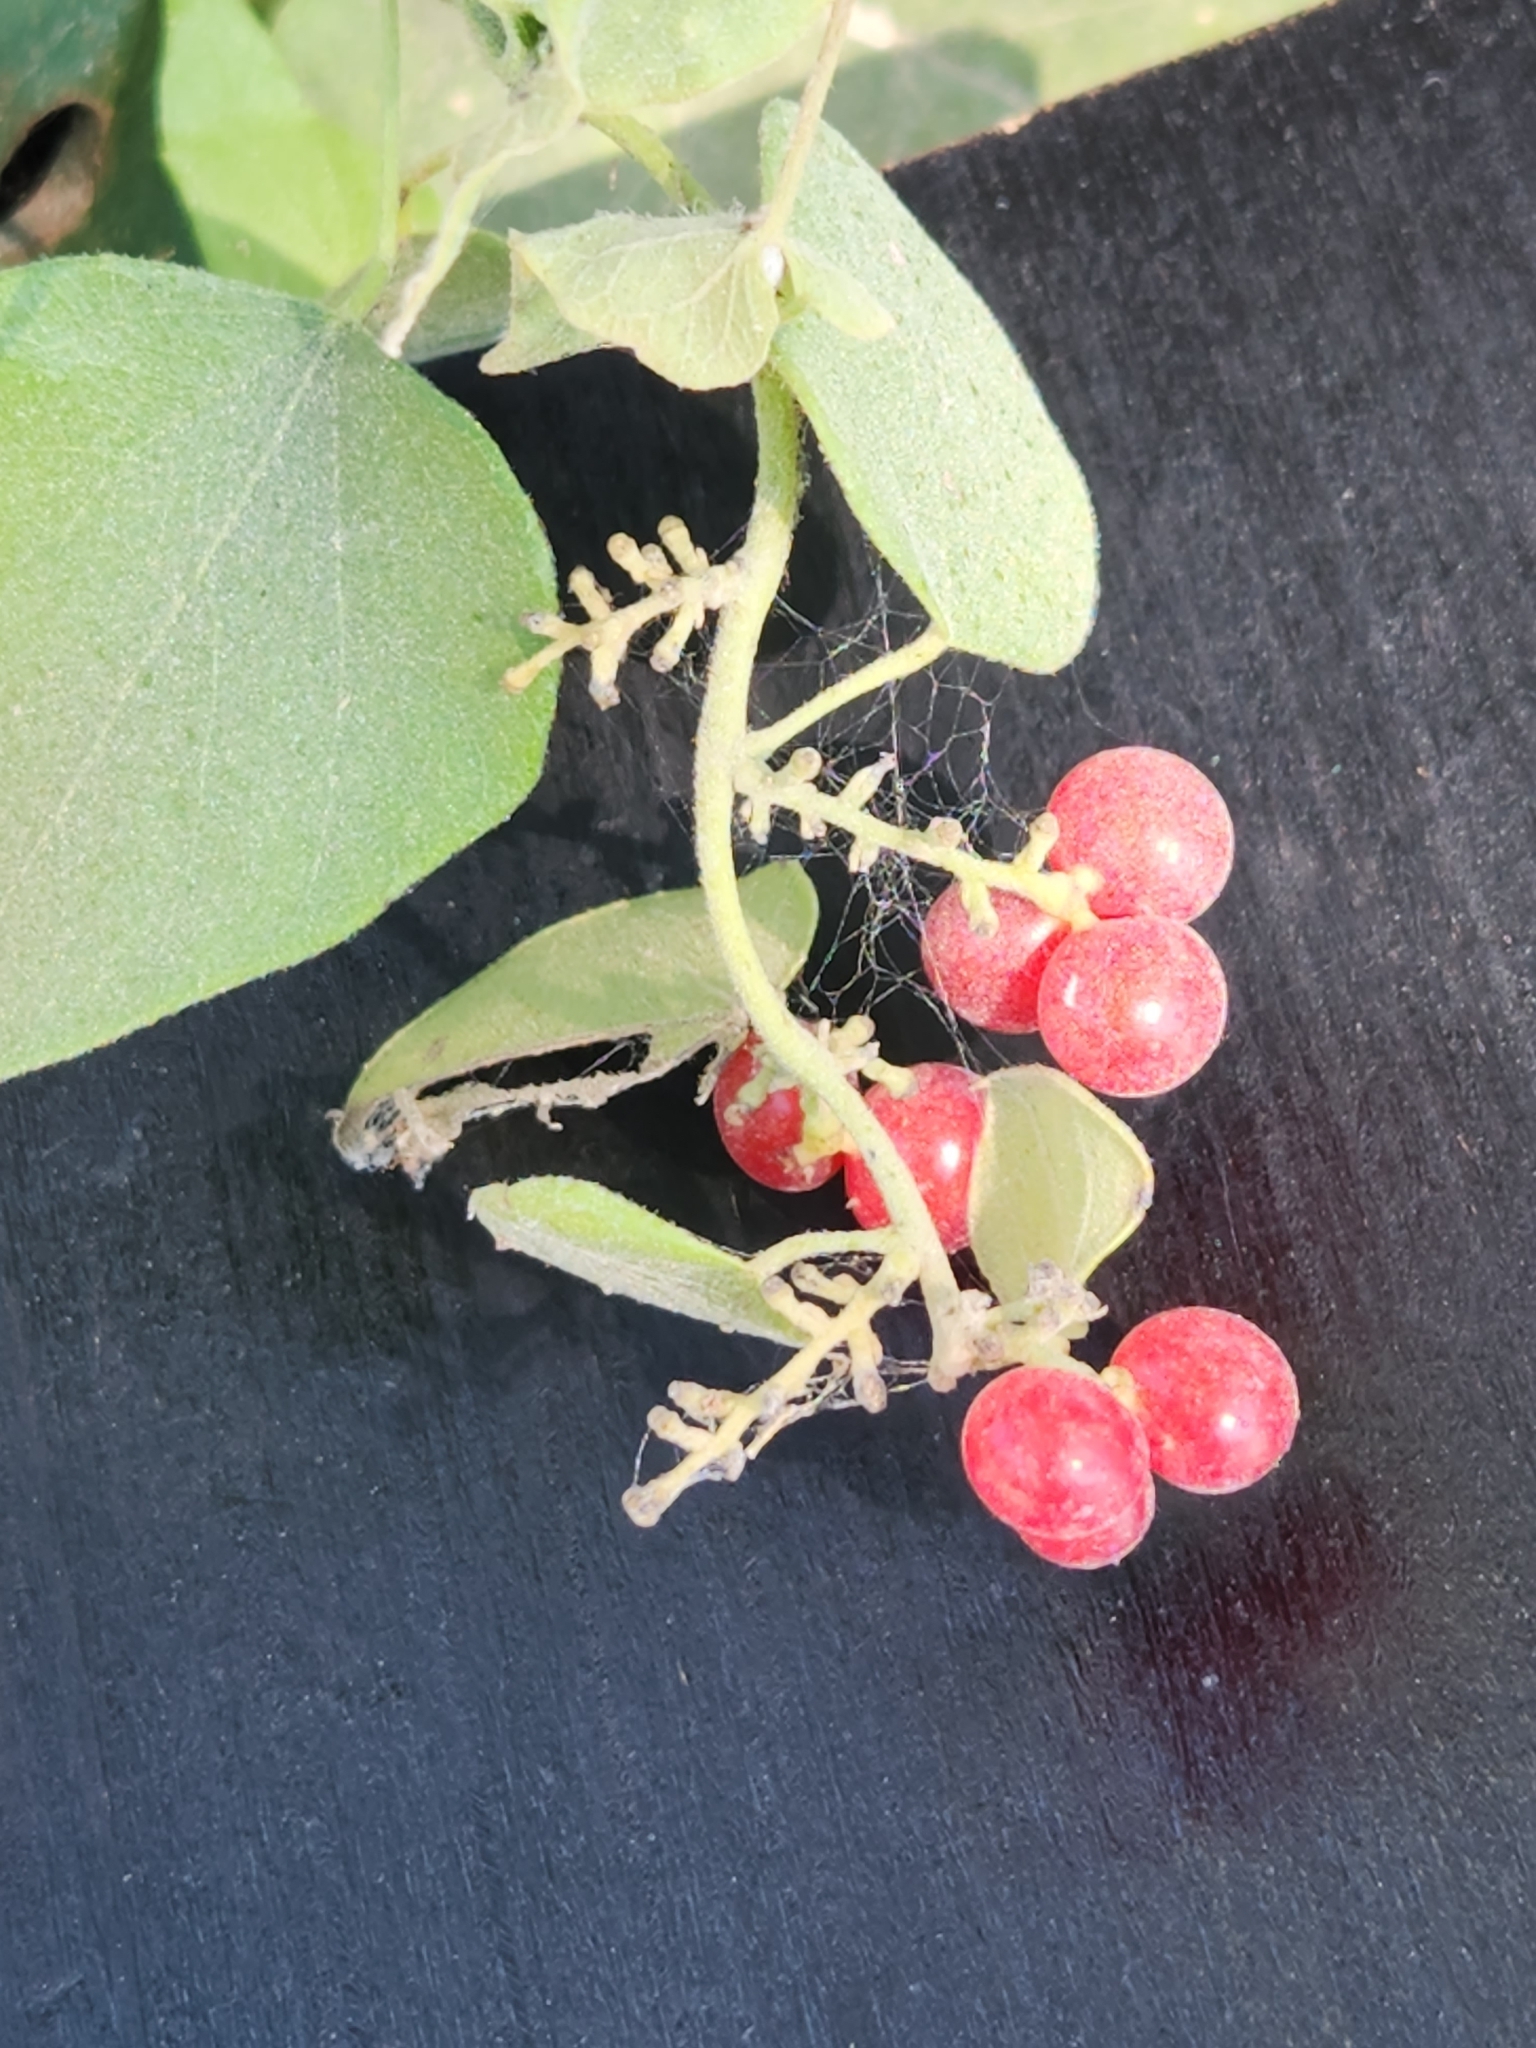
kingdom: Plantae
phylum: Tracheophyta
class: Magnoliopsida
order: Ranunculales
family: Menispermaceae
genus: Cocculus
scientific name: Cocculus carolinus
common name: Carolina moonseed
